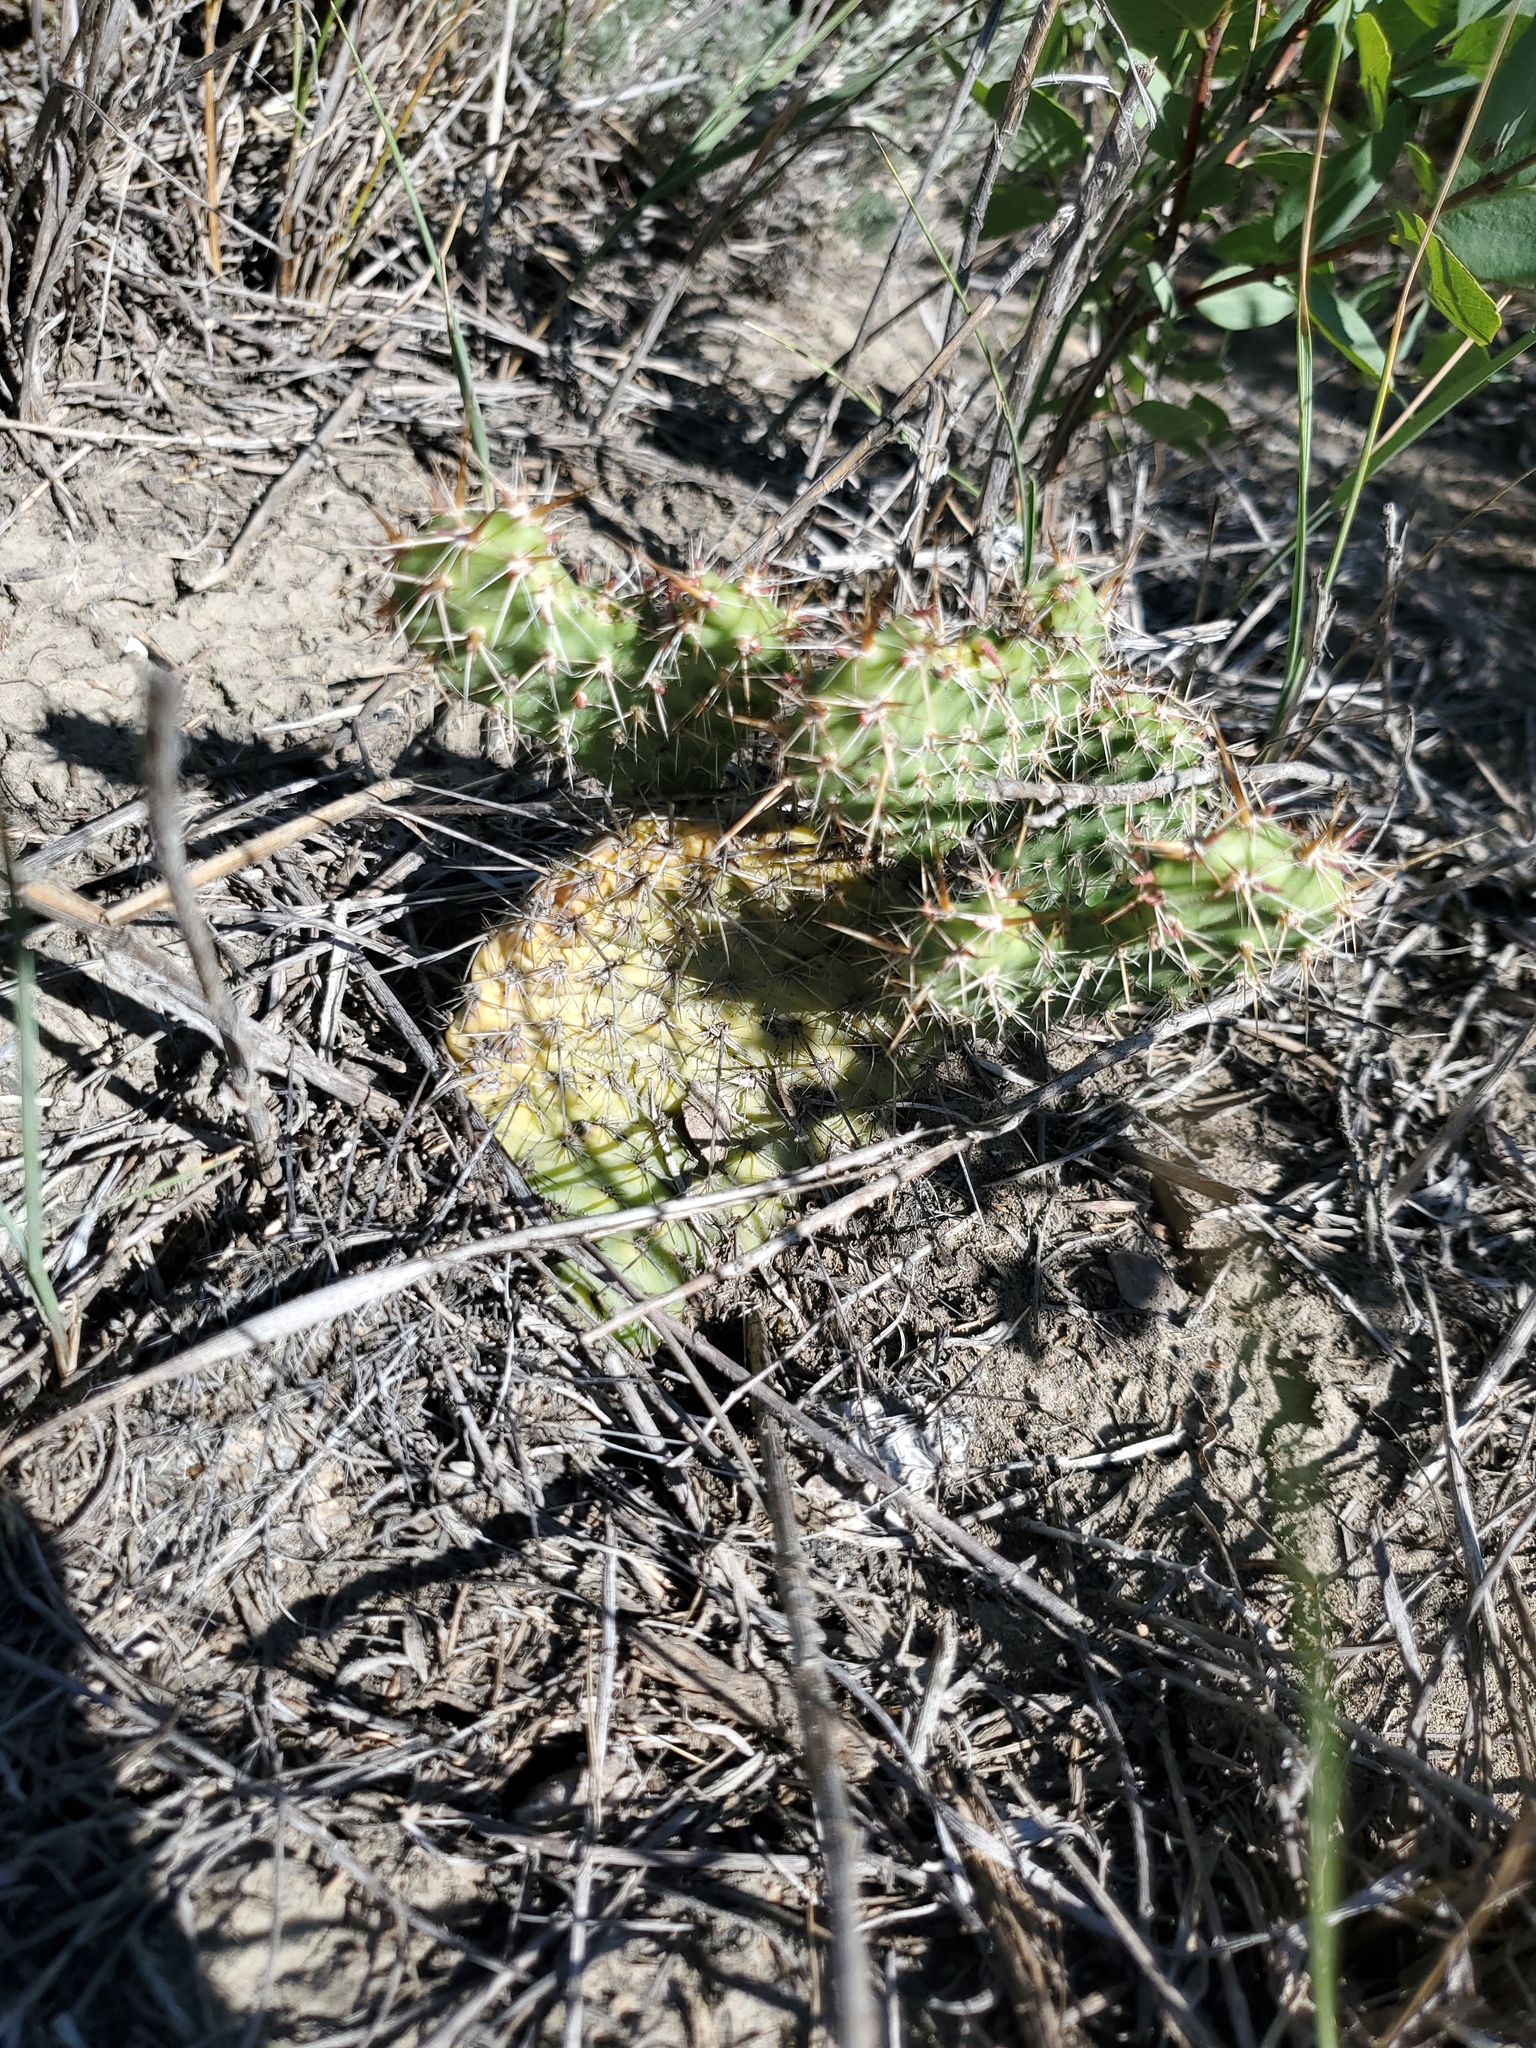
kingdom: Plantae
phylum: Tracheophyta
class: Magnoliopsida
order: Caryophyllales
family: Cactaceae
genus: Opuntia
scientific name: Opuntia polyacantha
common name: Plains prickly-pear
